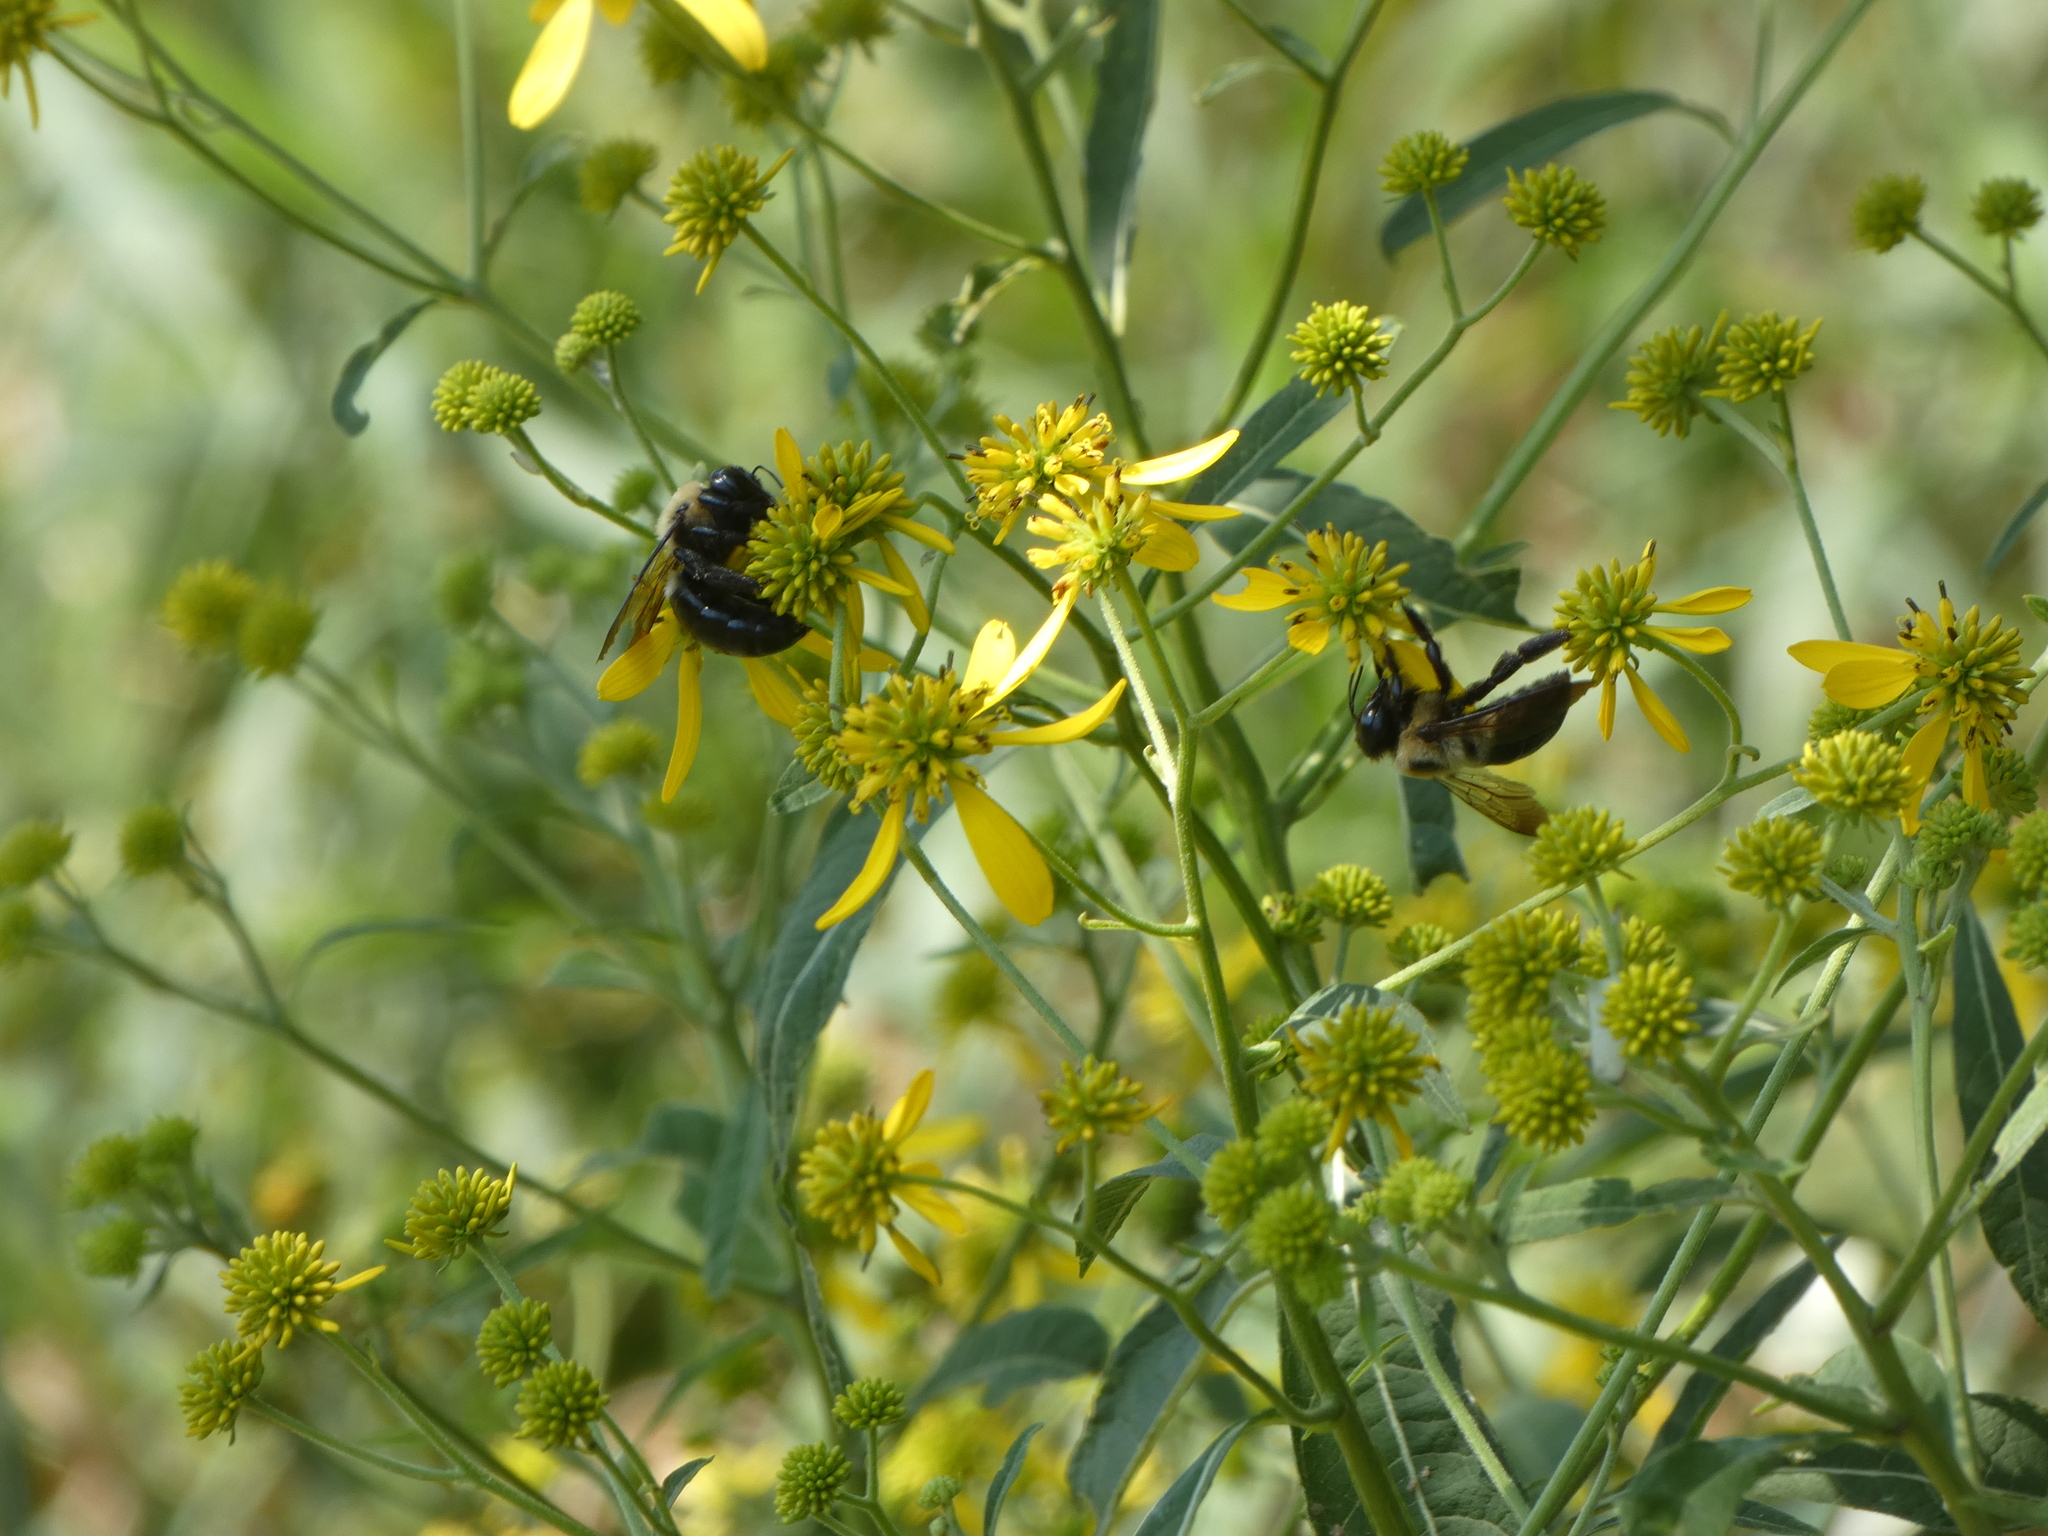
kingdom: Animalia
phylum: Arthropoda
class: Insecta
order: Hymenoptera
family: Apidae
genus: Xylocopa
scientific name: Xylocopa virginica
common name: Carpenter bee
